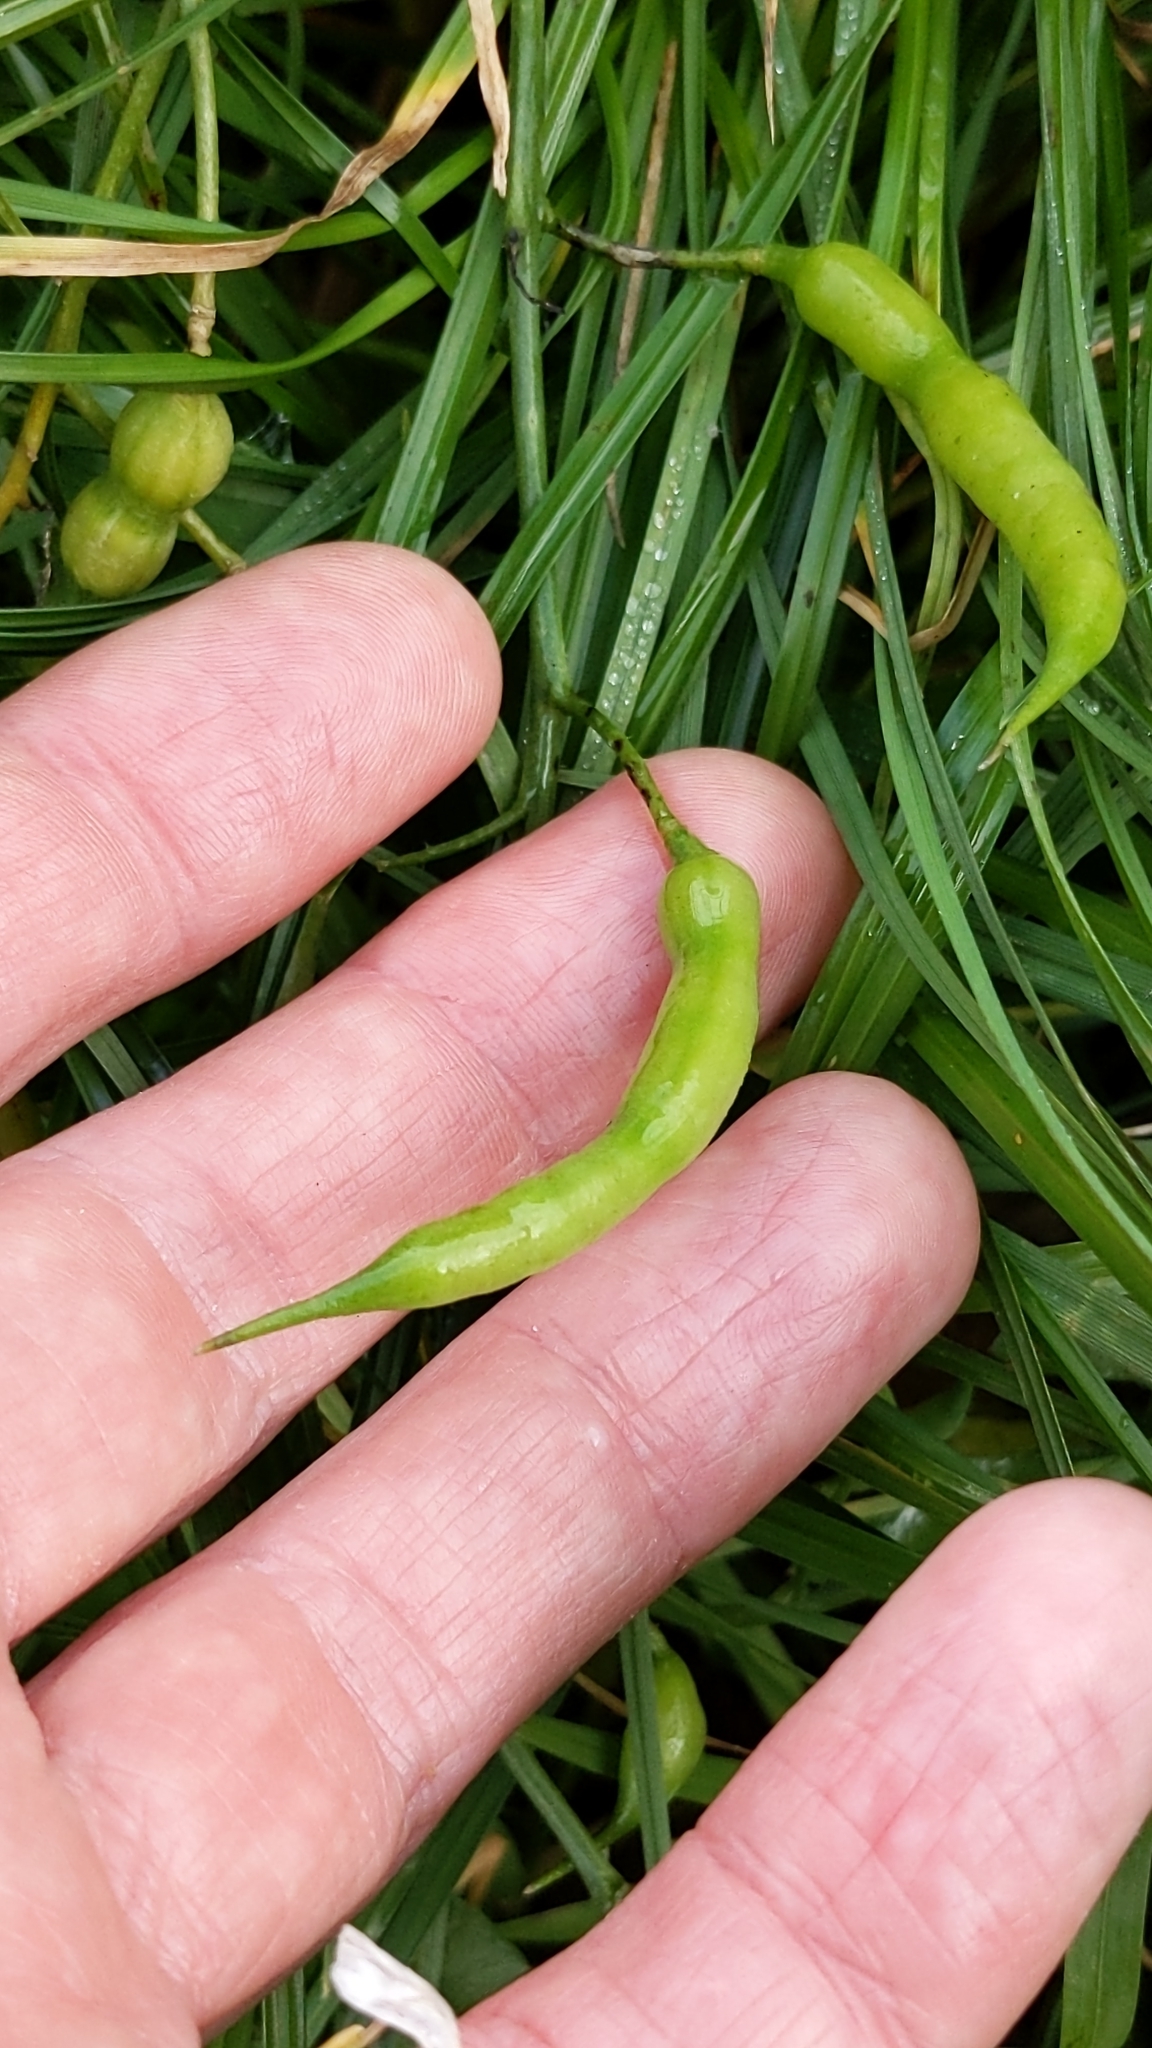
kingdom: Plantae
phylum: Tracheophyta
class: Magnoliopsida
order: Brassicales
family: Brassicaceae
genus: Raphanus
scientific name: Raphanus raphanistrum
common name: Wild radish
